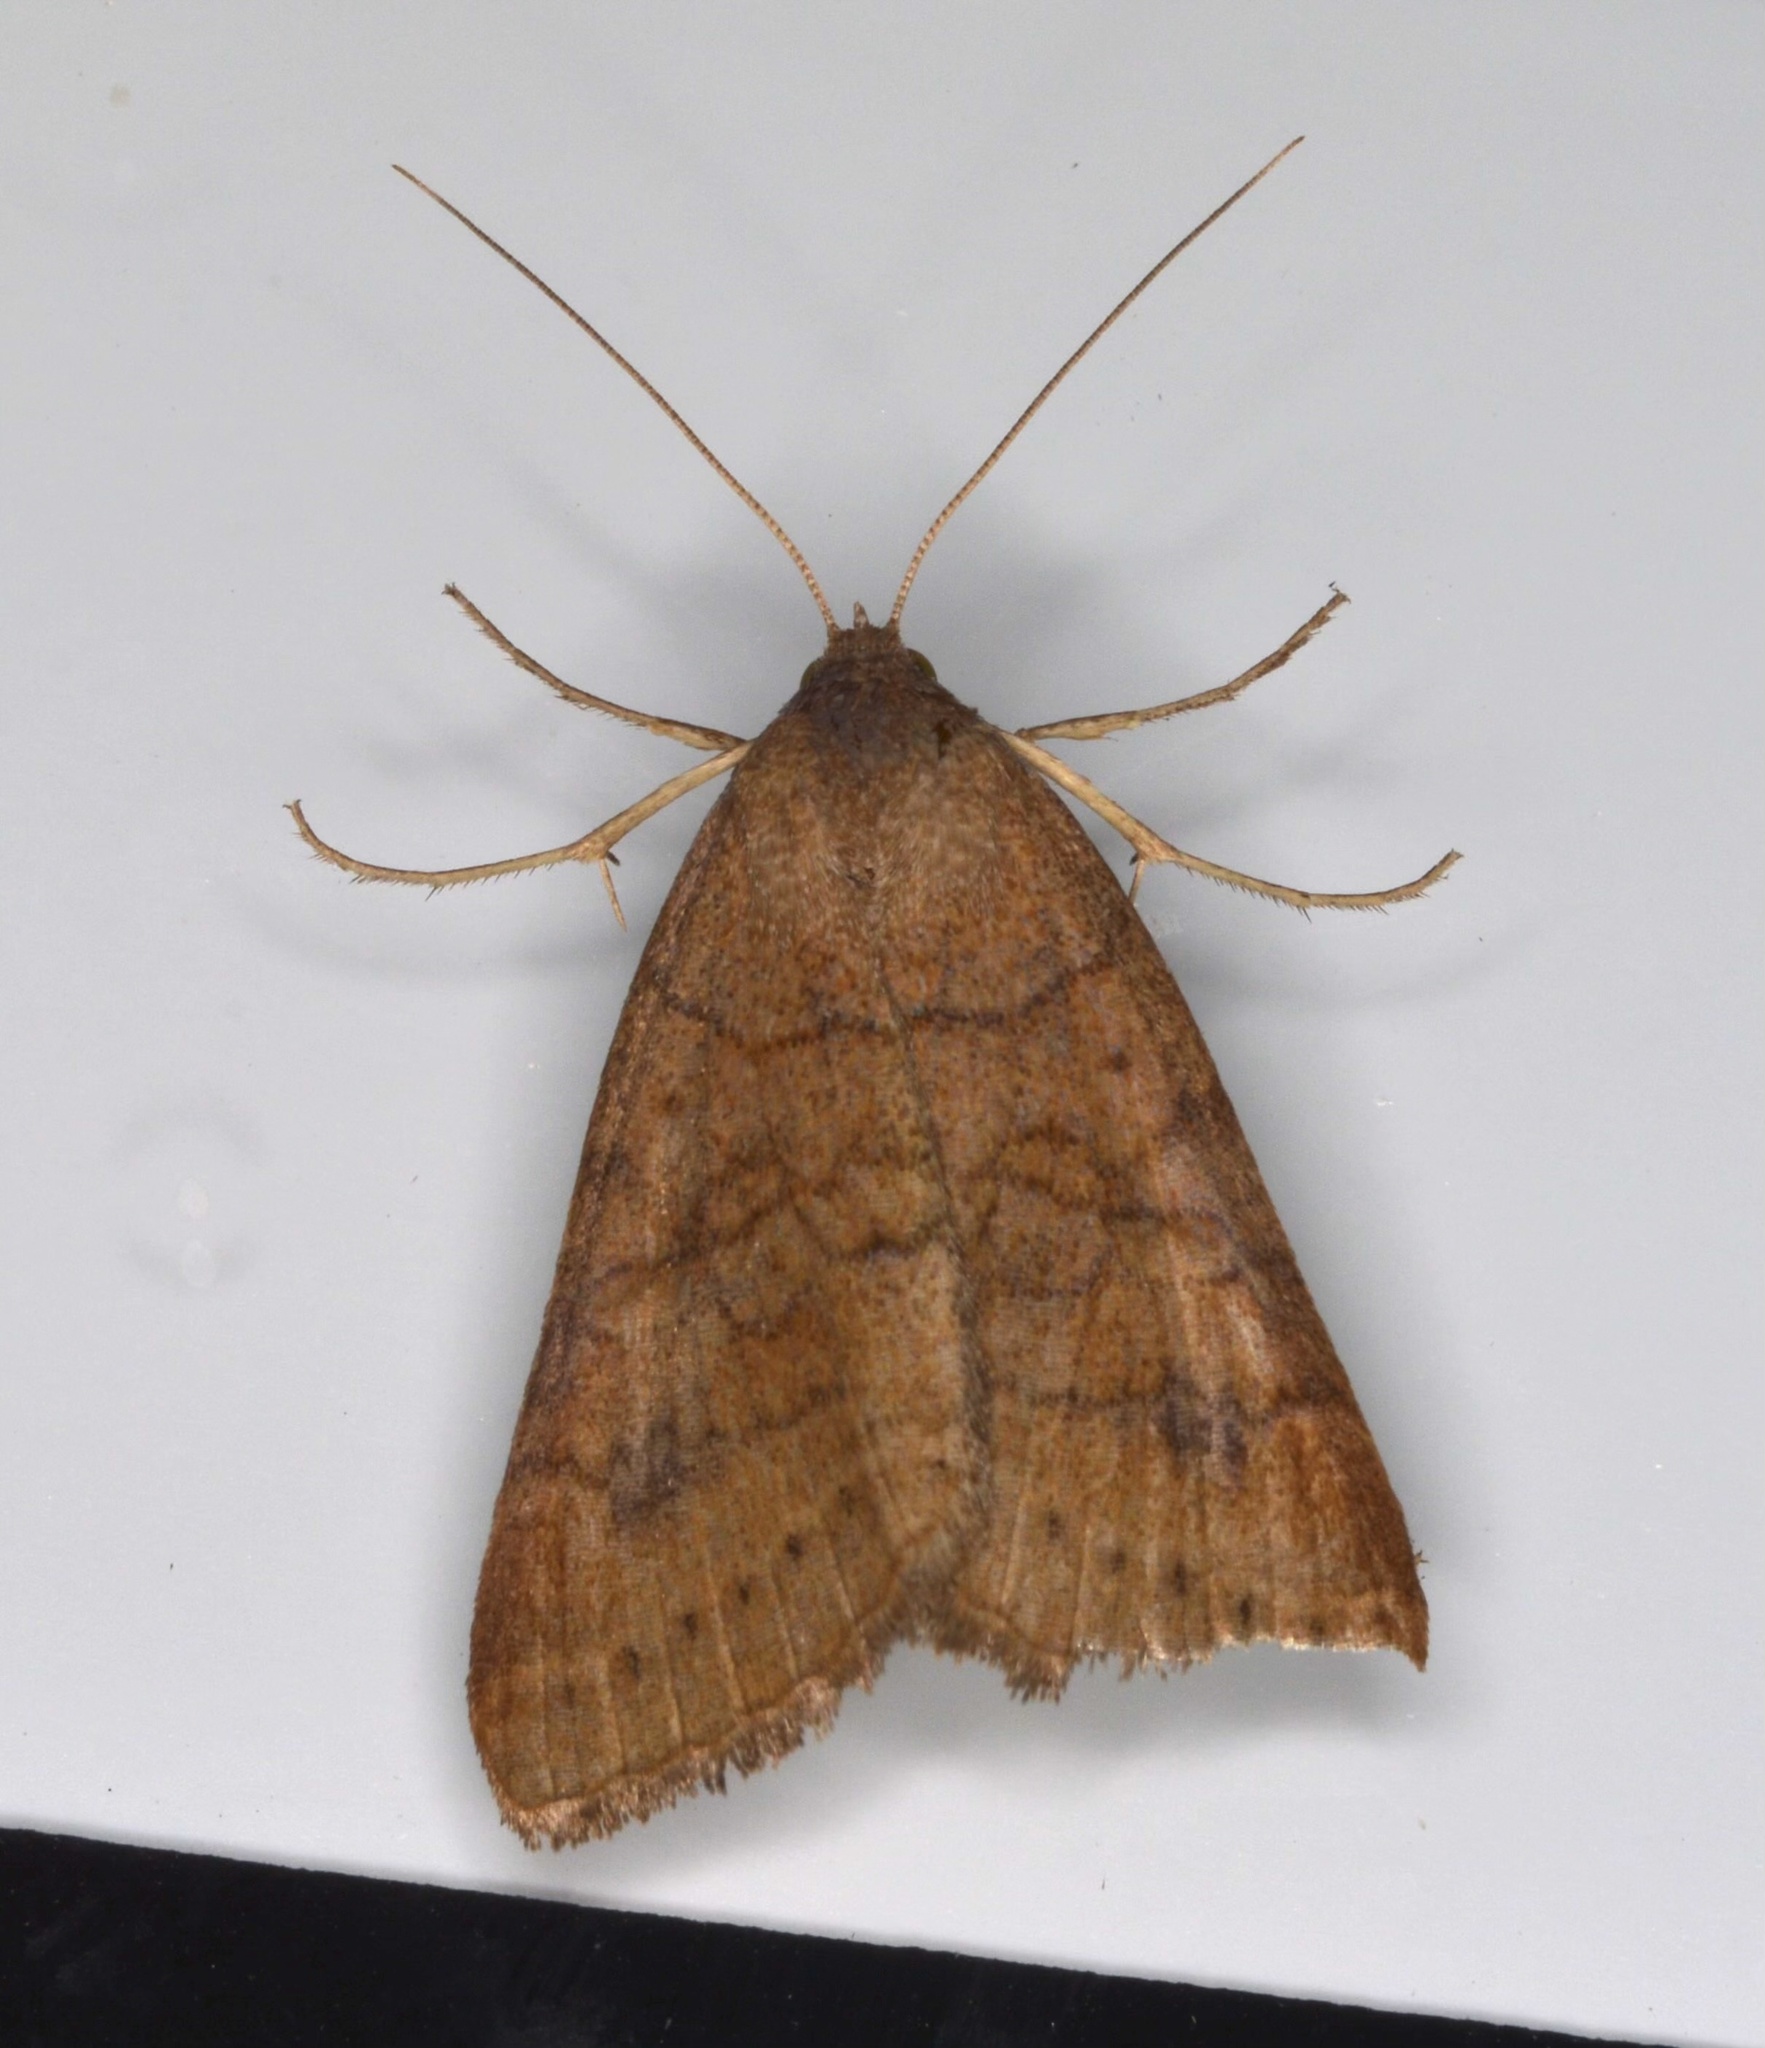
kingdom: Animalia
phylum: Arthropoda
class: Insecta
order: Lepidoptera
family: Erebidae
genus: Caenurgia
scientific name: Caenurgia chloropha
